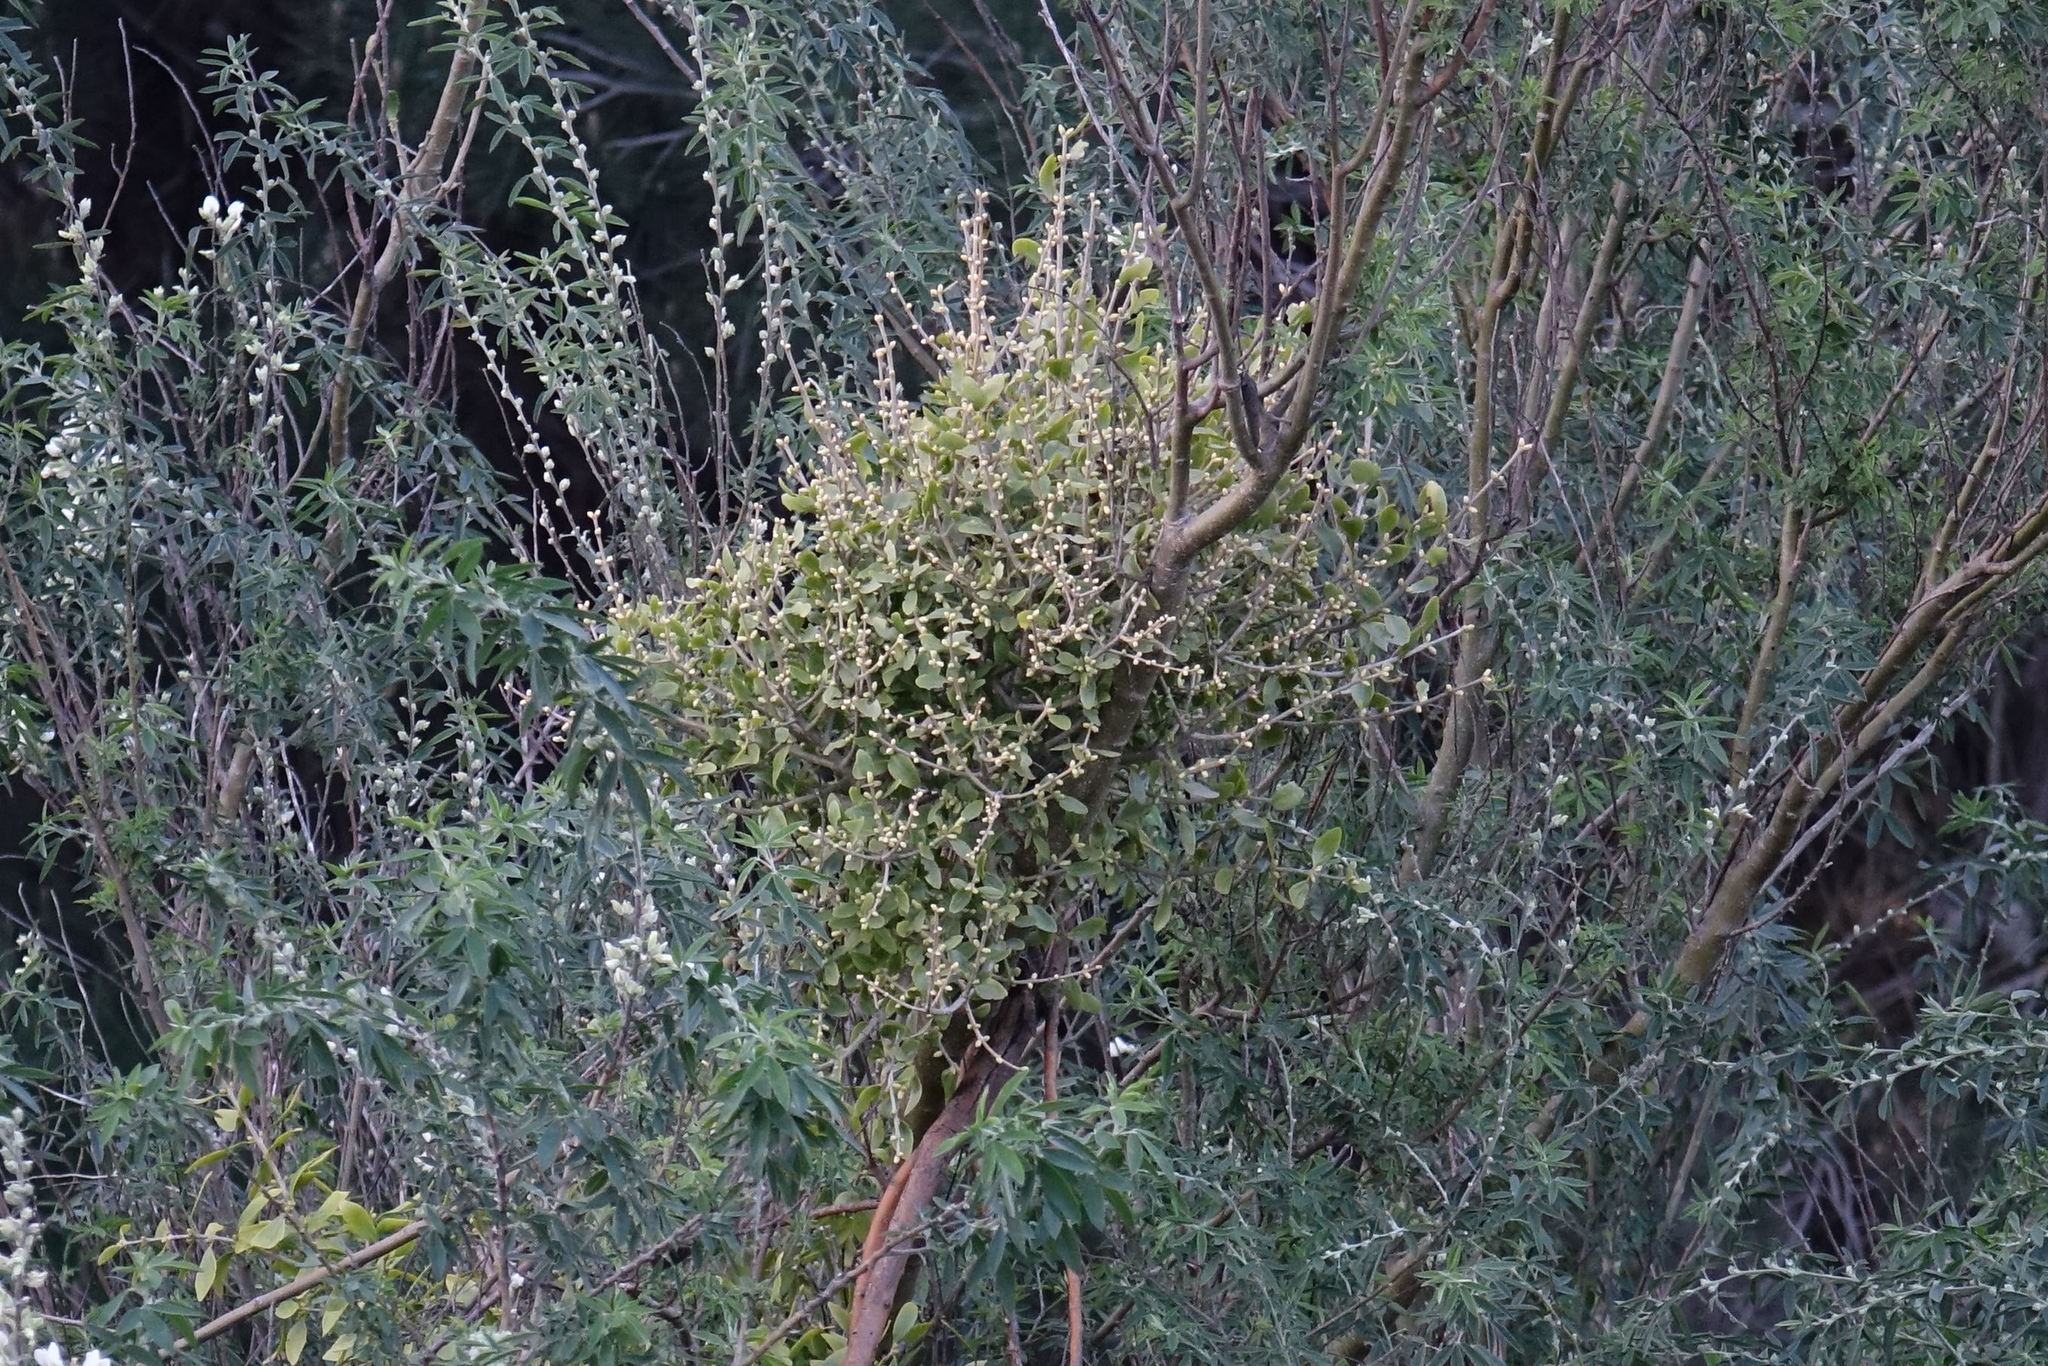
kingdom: Plantae
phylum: Tracheophyta
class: Magnoliopsida
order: Santalales
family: Loranthaceae
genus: Tupeia
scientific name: Tupeia antarctica
